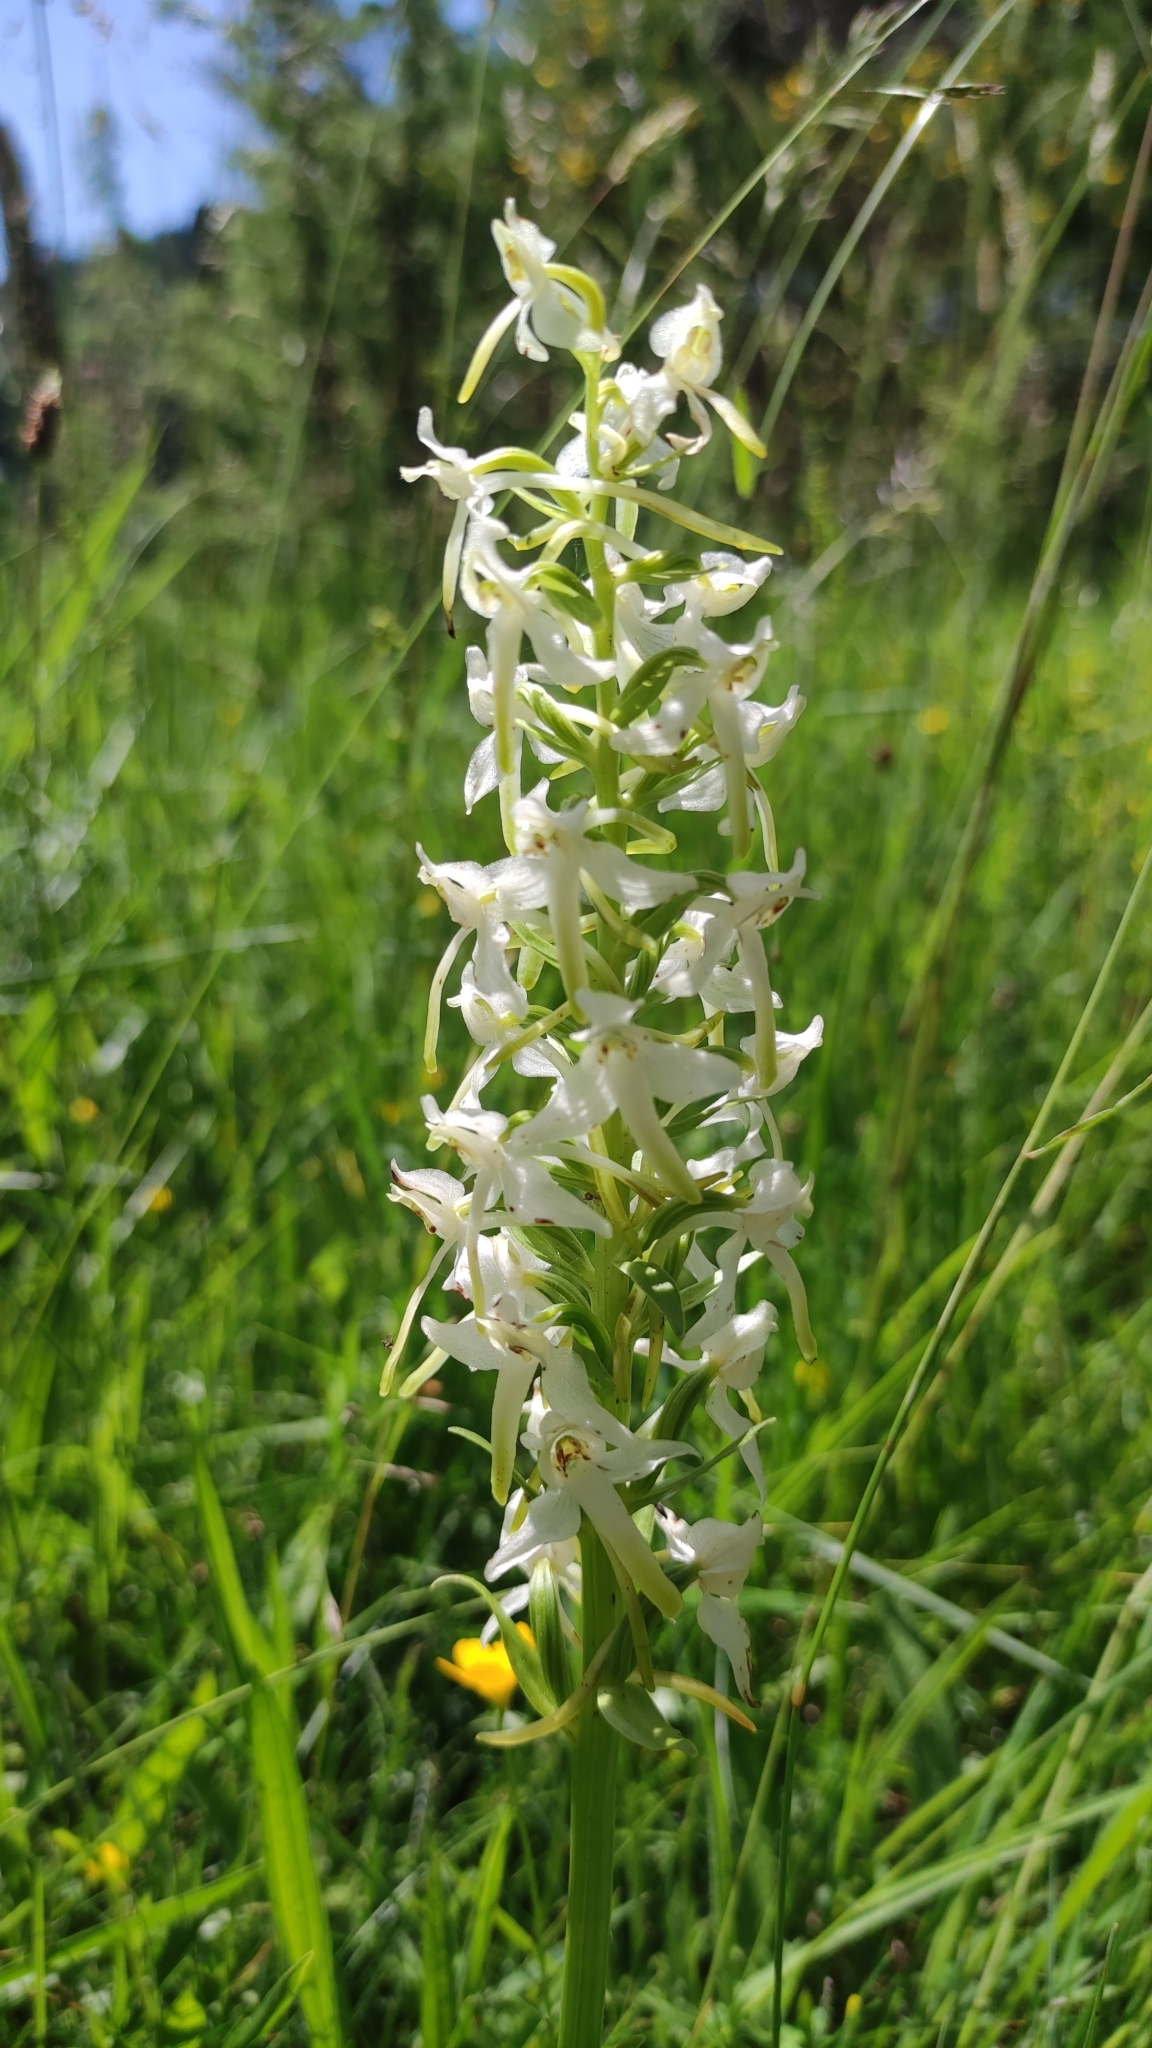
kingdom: Plantae
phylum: Tracheophyta
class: Liliopsida
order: Asparagales
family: Orchidaceae
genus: Platanthera
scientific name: Platanthera chlorantha
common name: Greater butterfly-orchid
